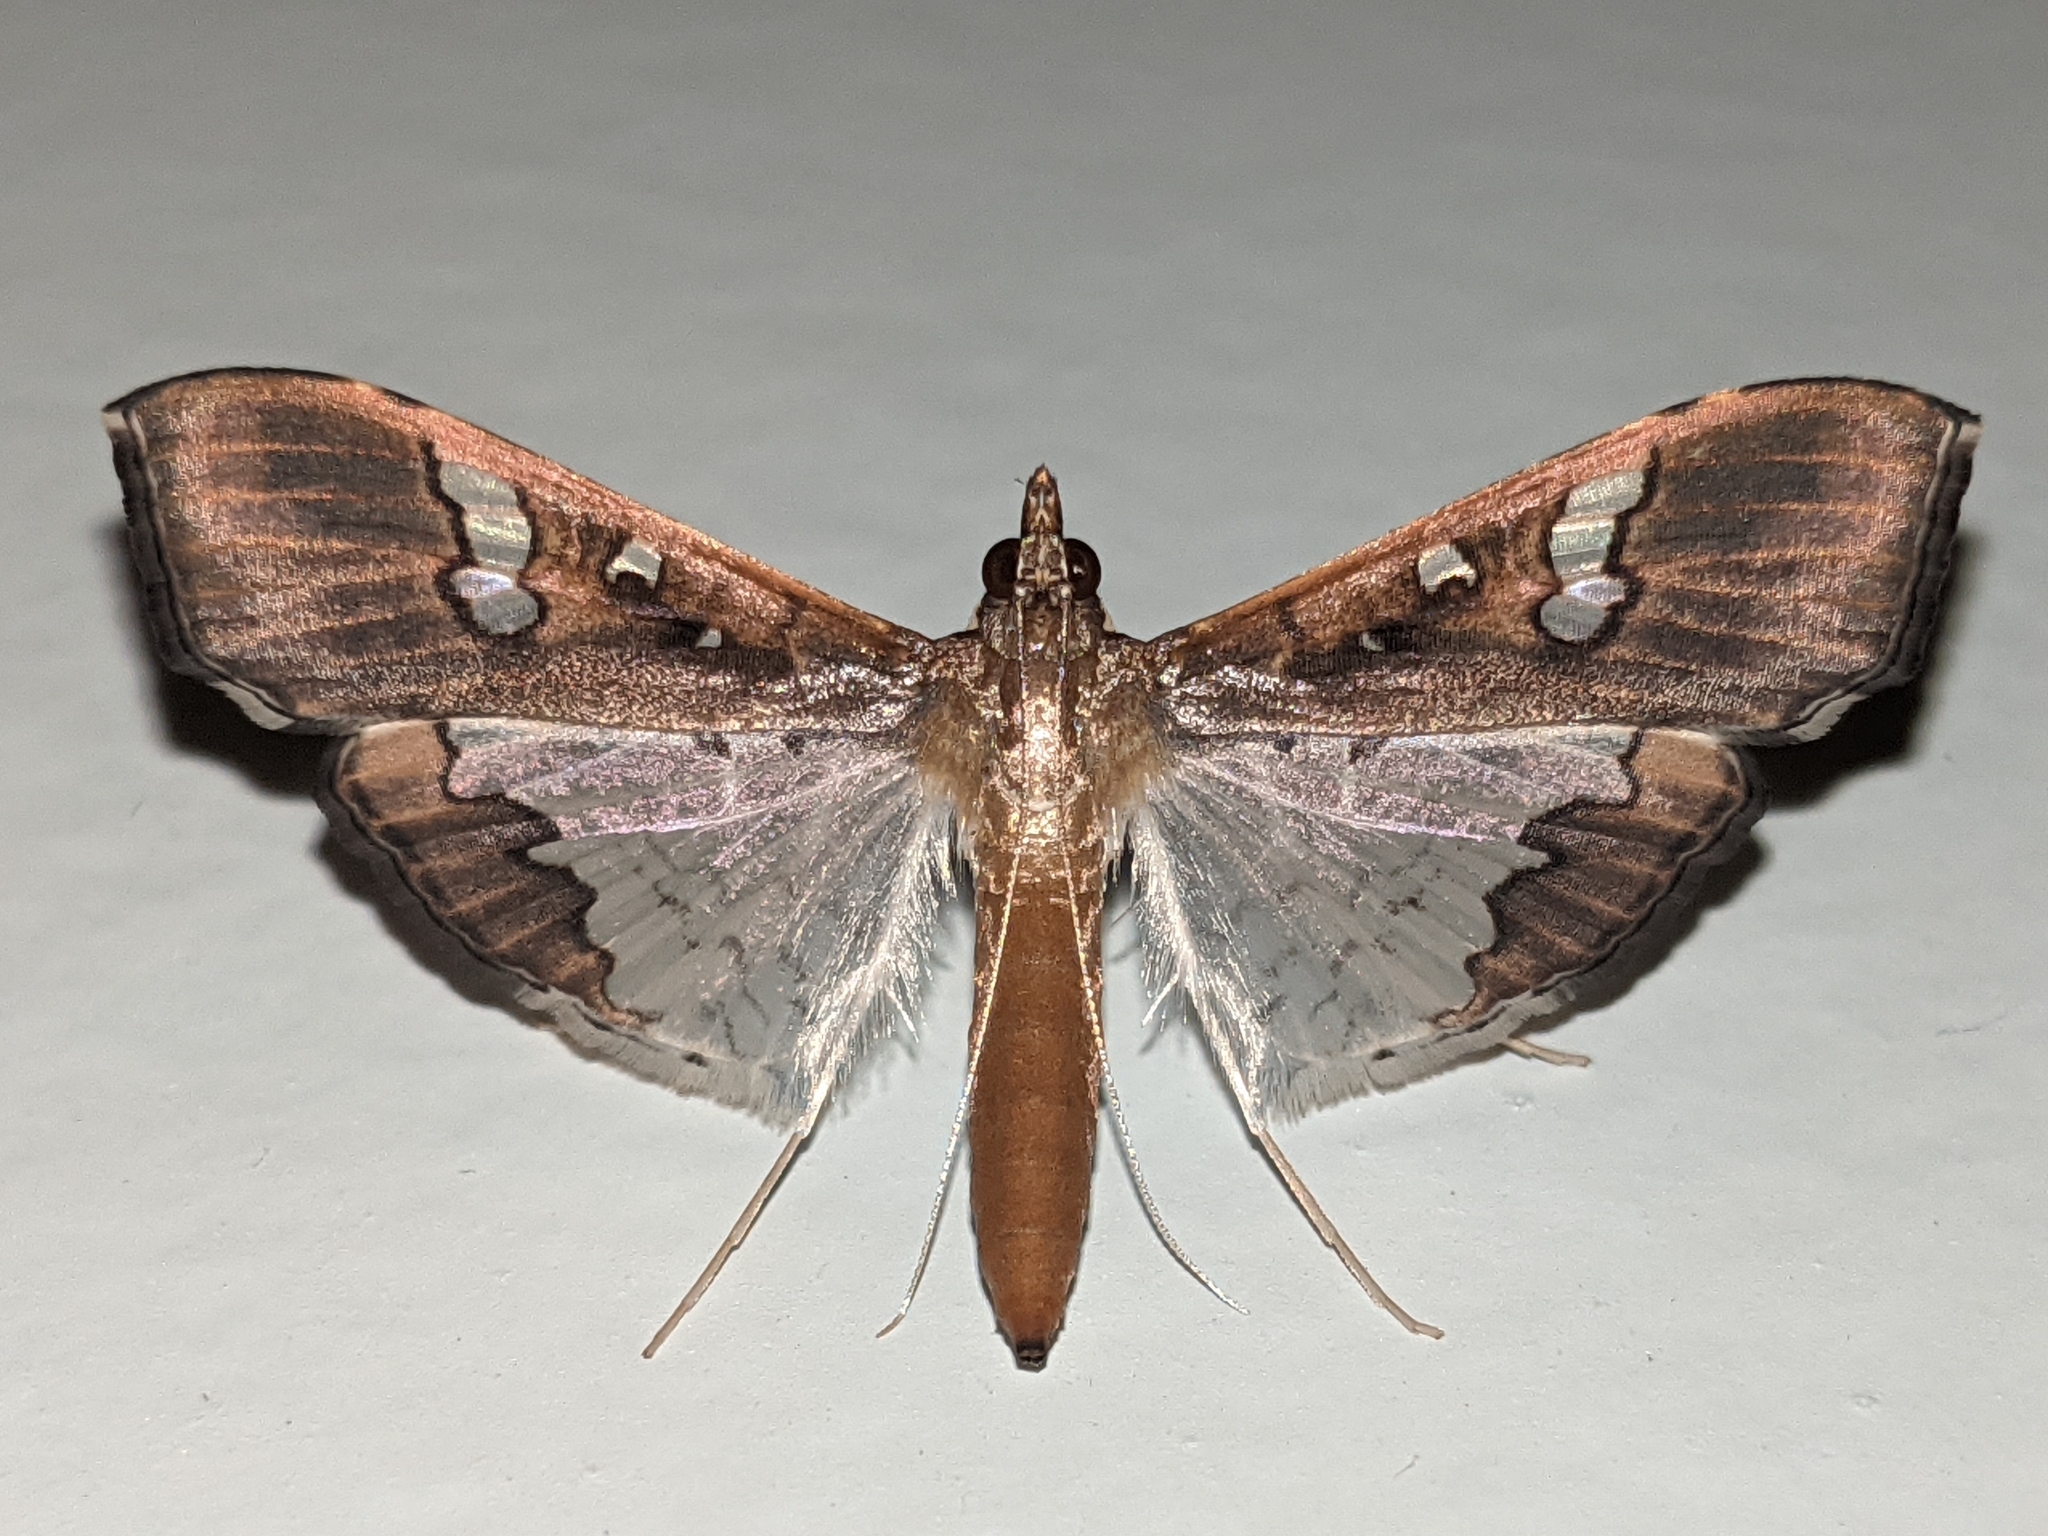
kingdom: Animalia
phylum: Arthropoda
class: Insecta
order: Lepidoptera
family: Crambidae
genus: Maruca
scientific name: Maruca vitrata
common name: Maruca pod borer
